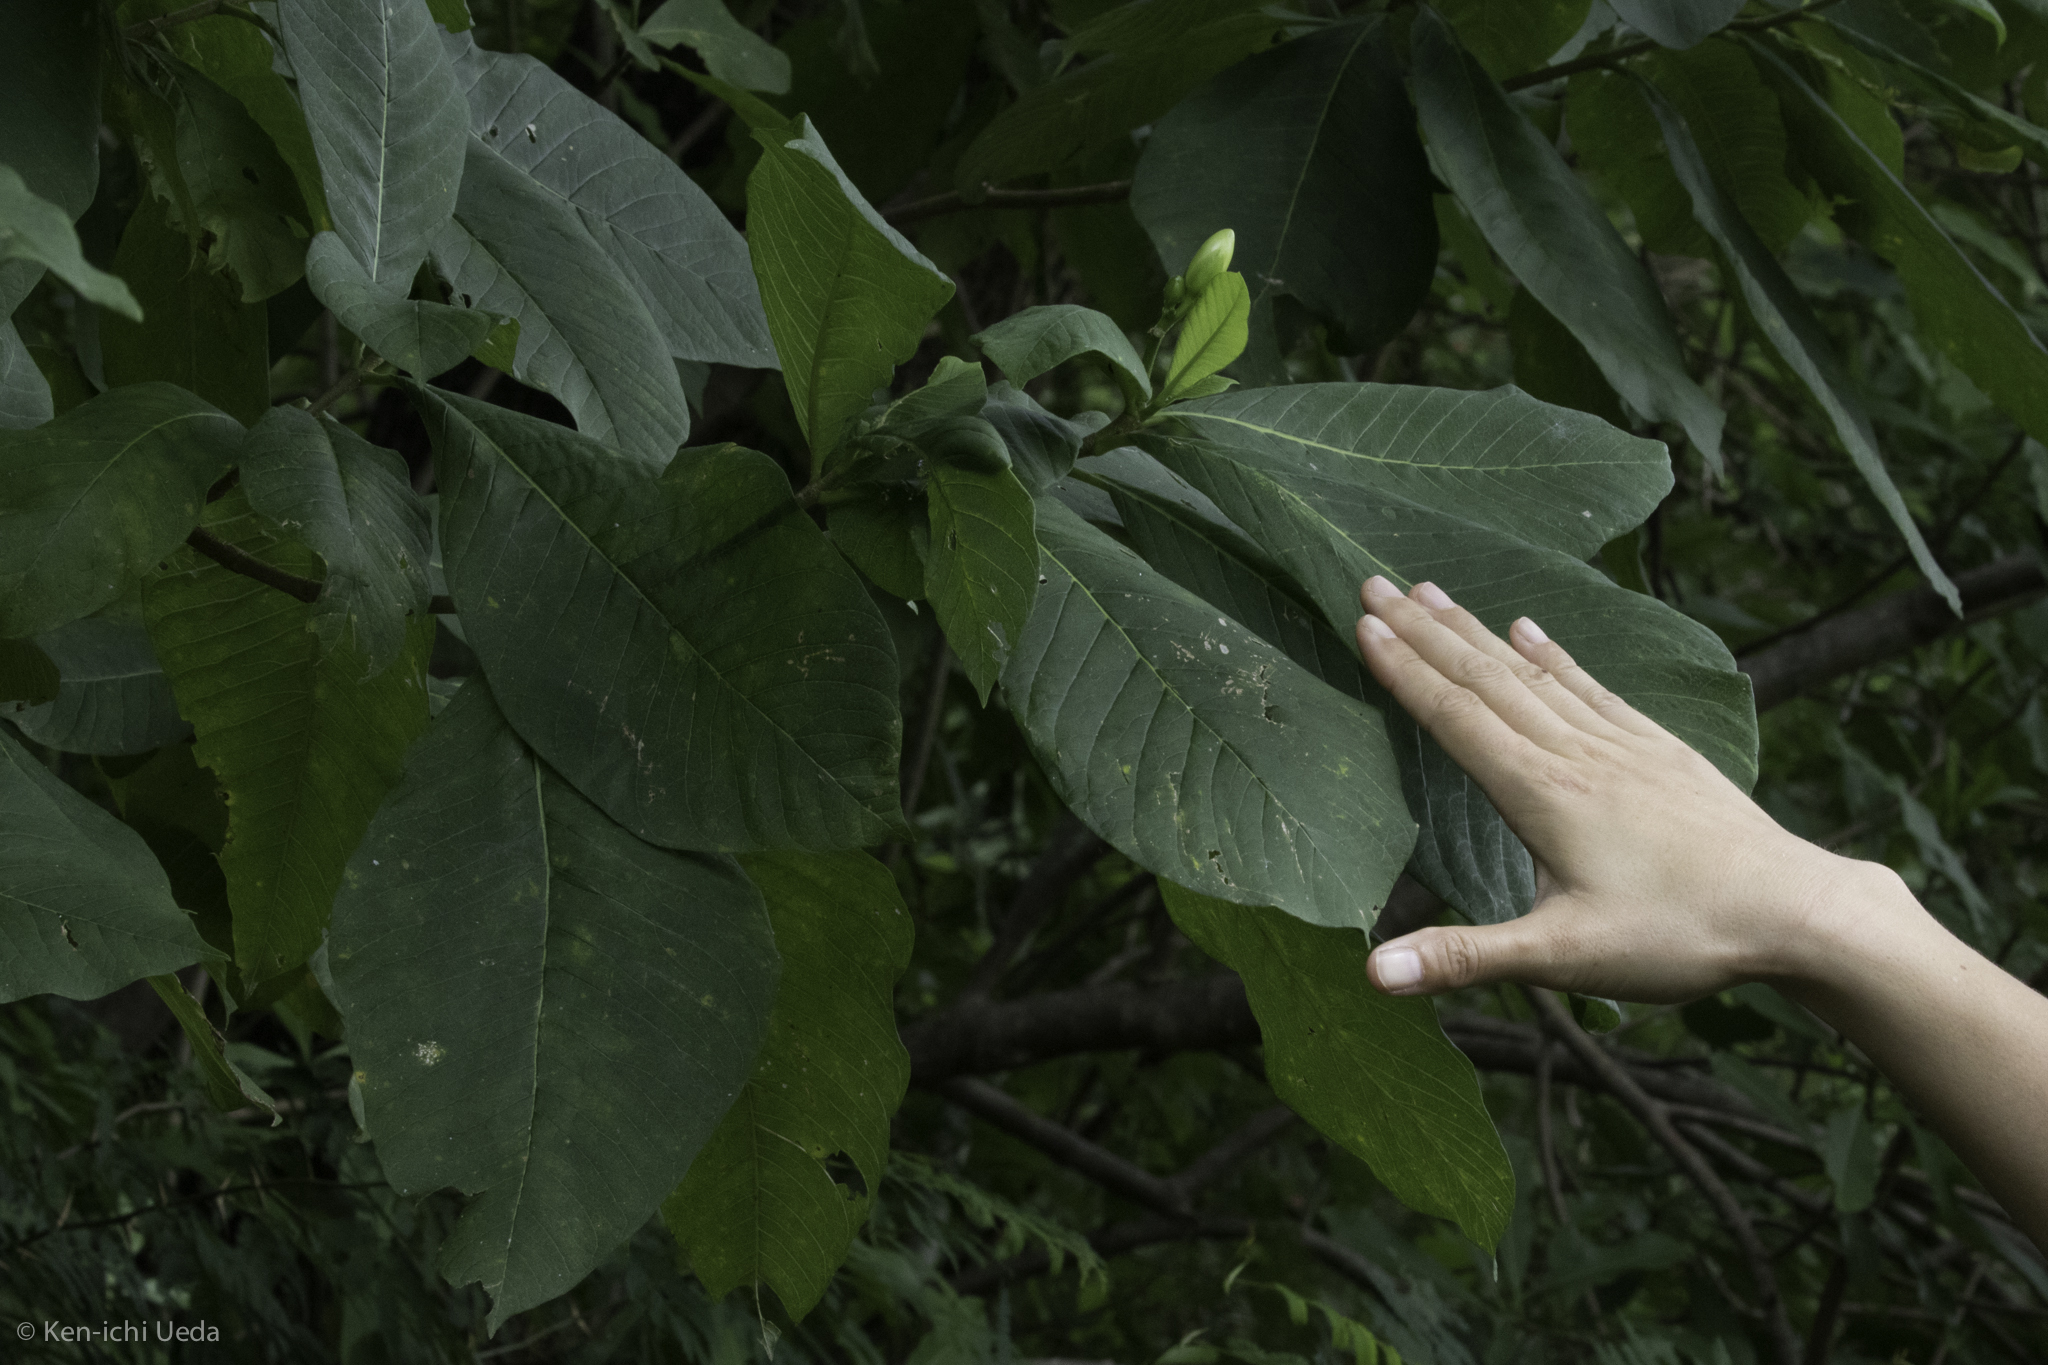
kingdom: Plantae
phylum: Tracheophyta
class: Magnoliopsida
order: Gentianales
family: Apocynaceae
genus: Tabernaemontana
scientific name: Tabernaemontana glabra
